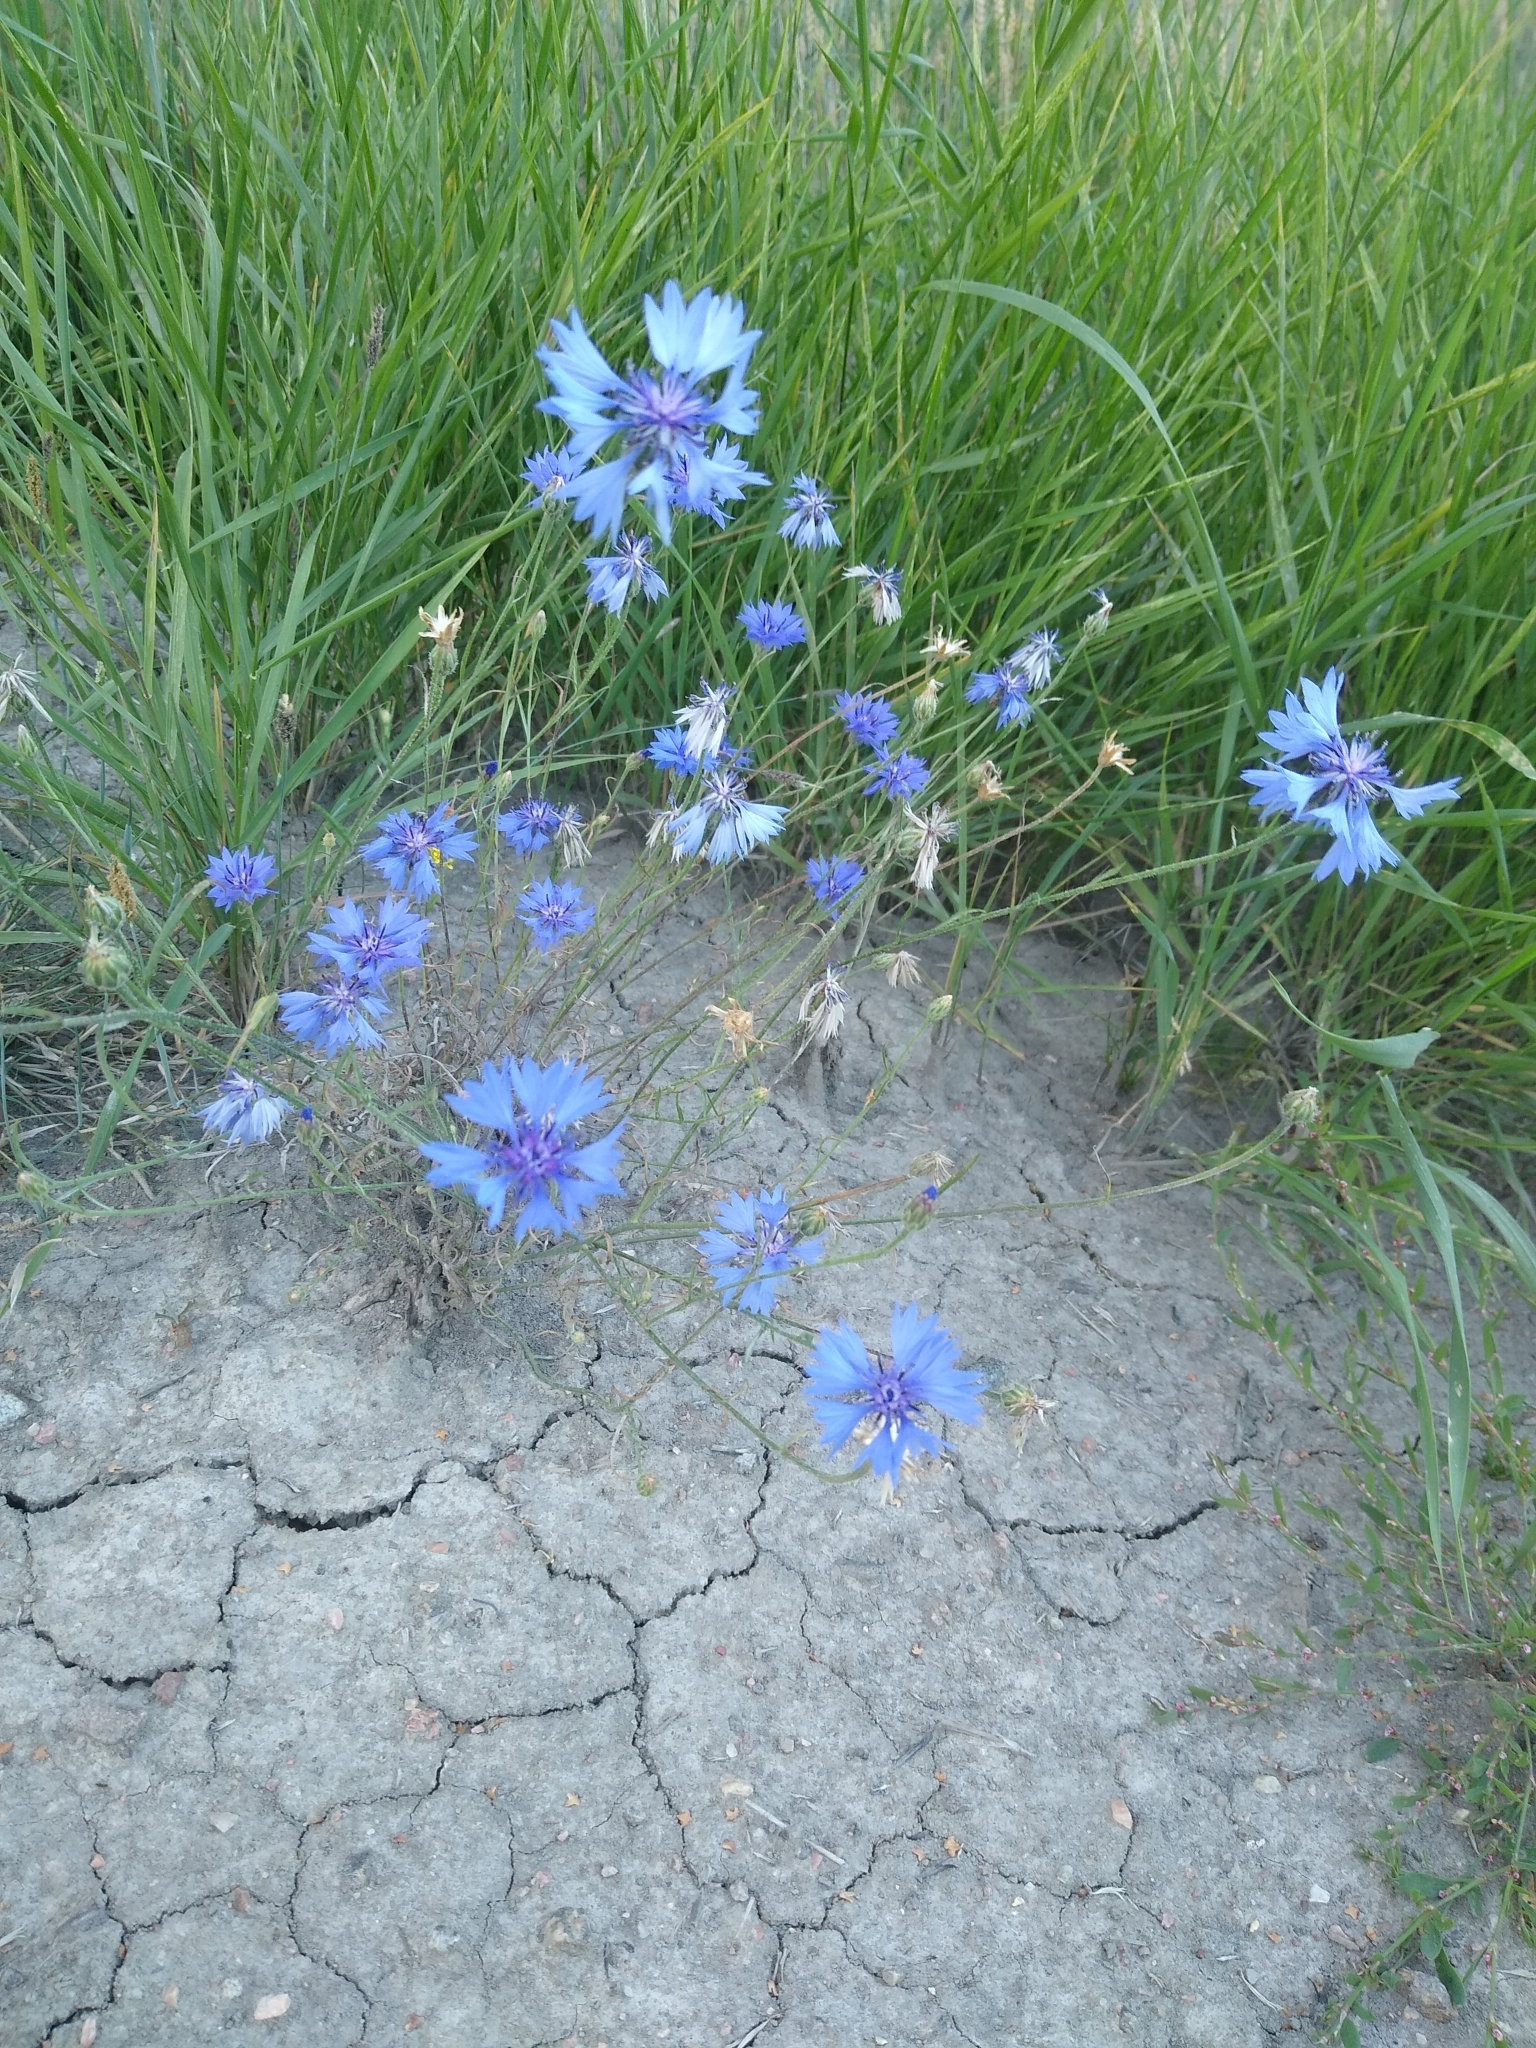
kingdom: Plantae
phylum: Tracheophyta
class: Magnoliopsida
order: Asterales
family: Asteraceae
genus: Centaurea
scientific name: Centaurea cyanus
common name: Cornflower
